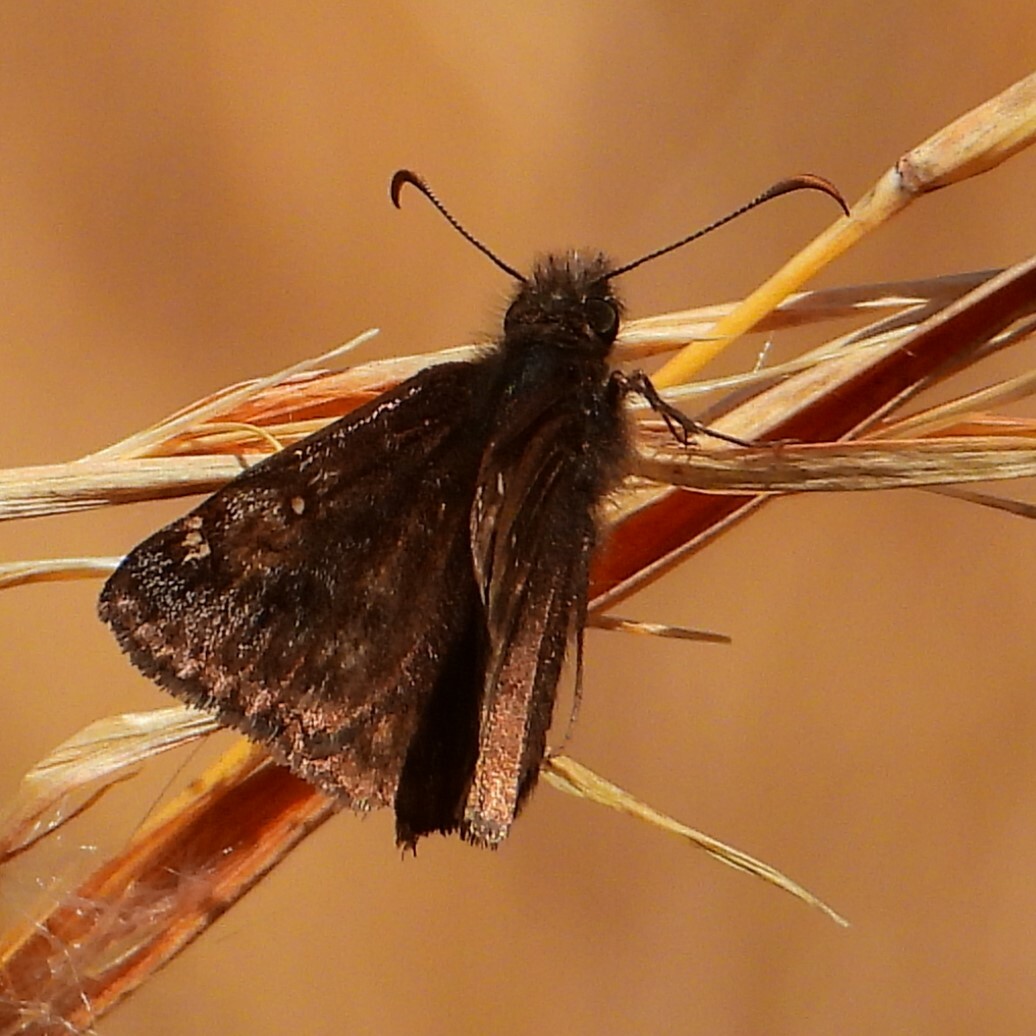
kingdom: Animalia
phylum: Arthropoda
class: Insecta
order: Lepidoptera
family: Hesperiidae
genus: Erynnis
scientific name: Erynnis juvenalis
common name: Juvenal's duskywing
